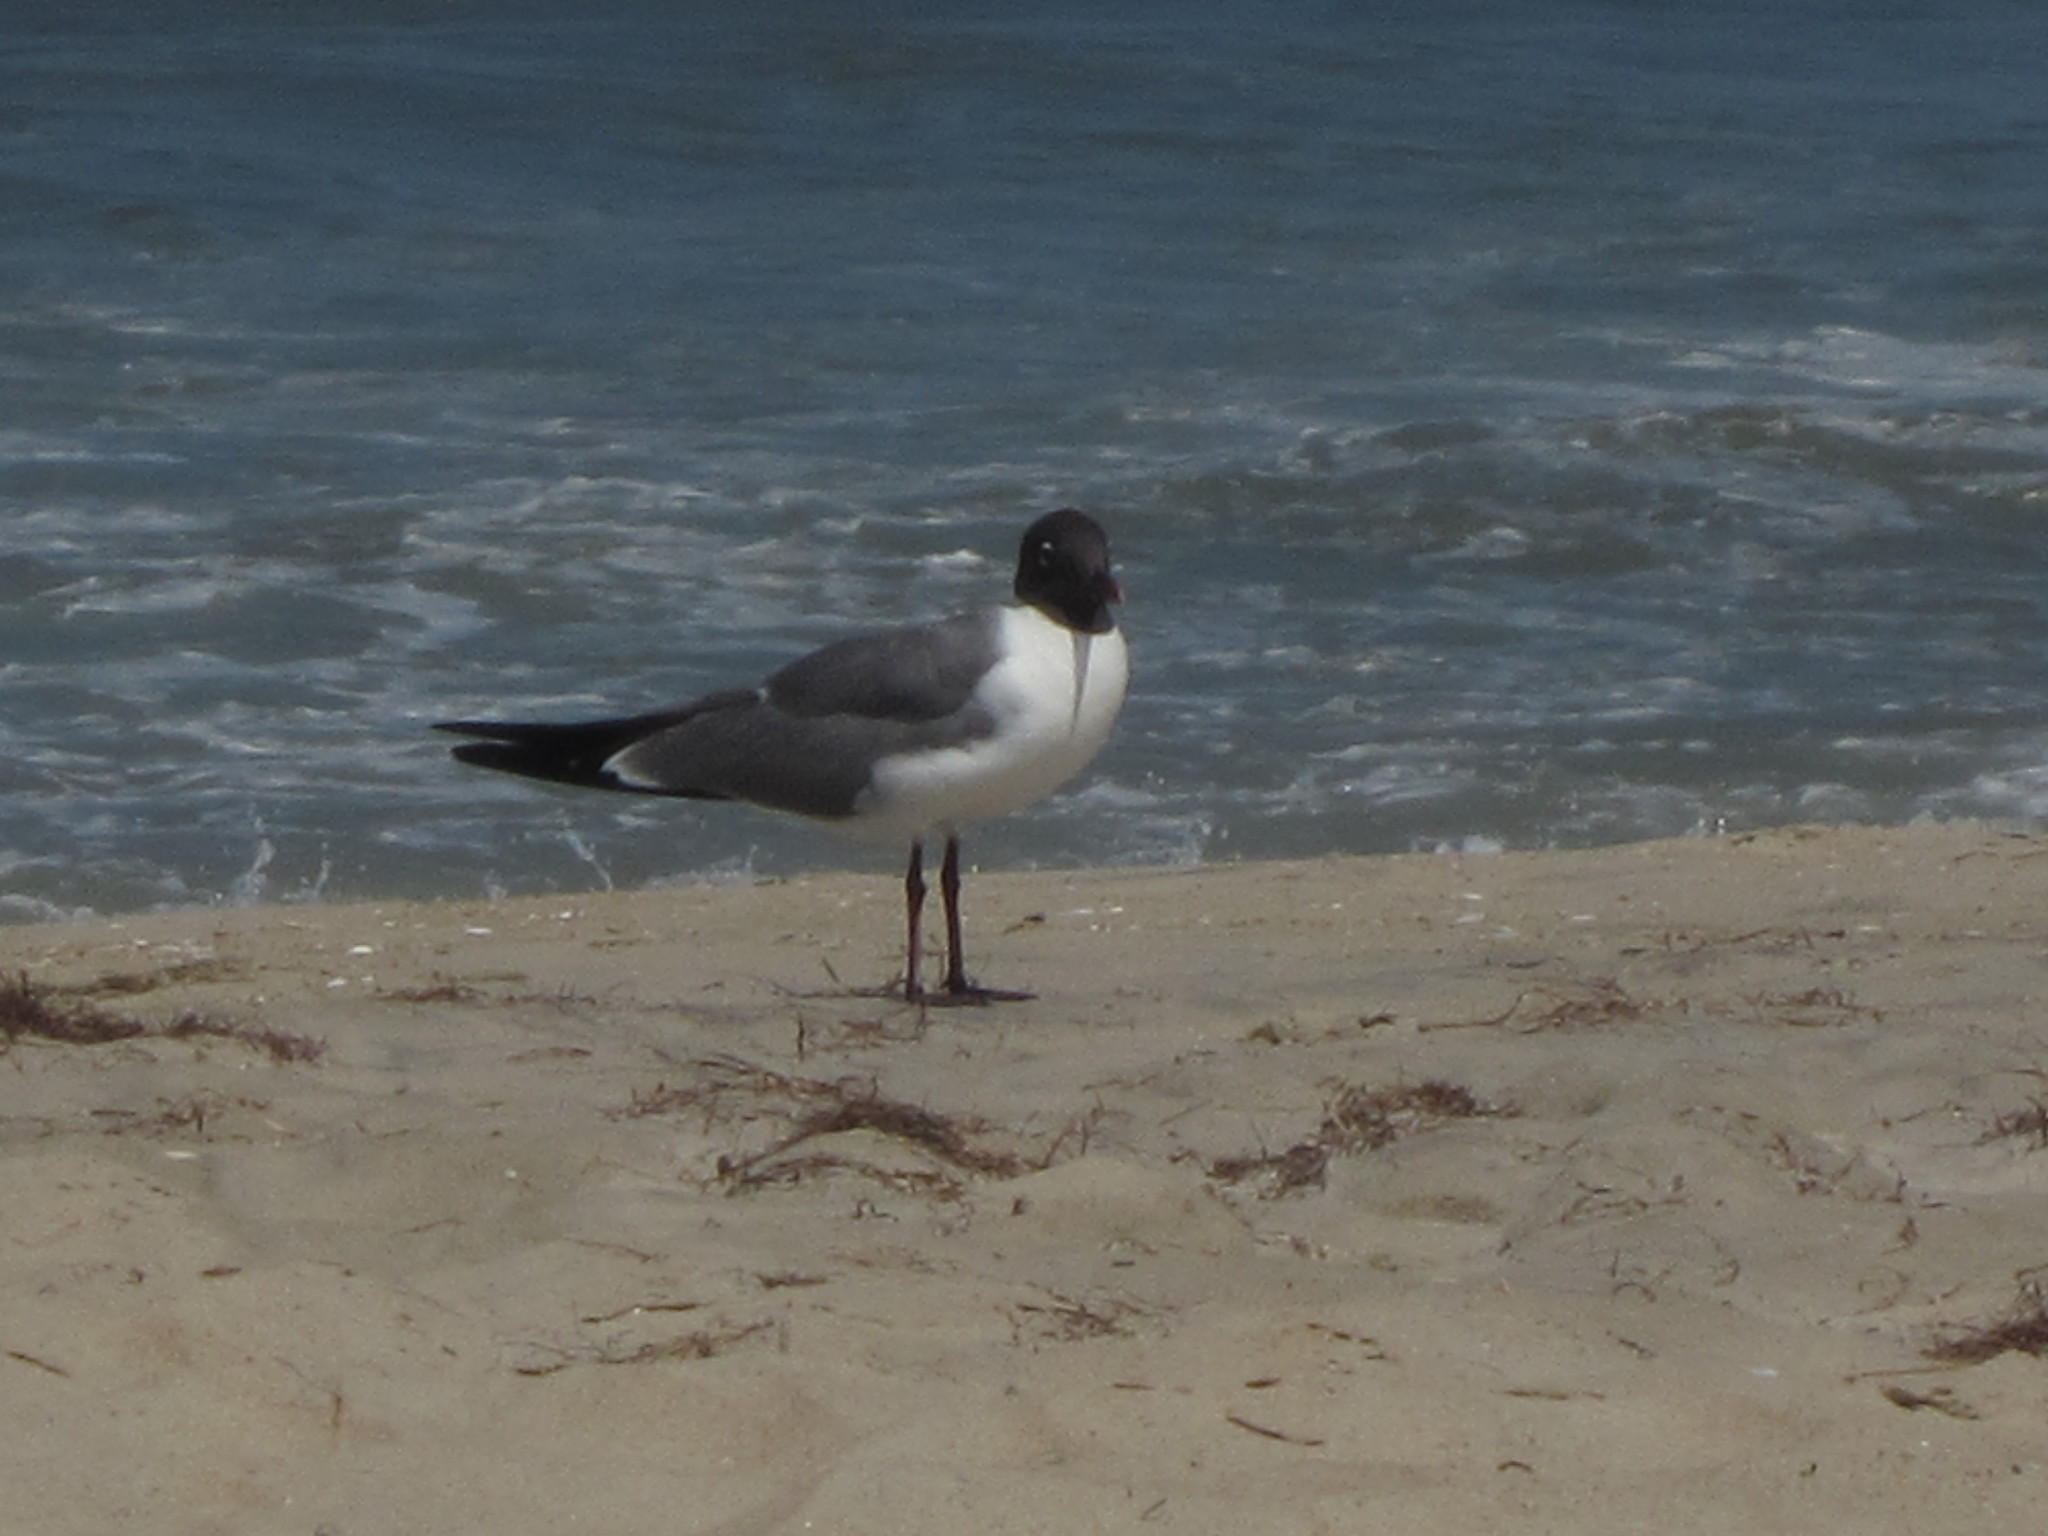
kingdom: Animalia
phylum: Chordata
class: Aves
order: Charadriiformes
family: Laridae
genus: Leucophaeus
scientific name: Leucophaeus atricilla
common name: Laughing gull
